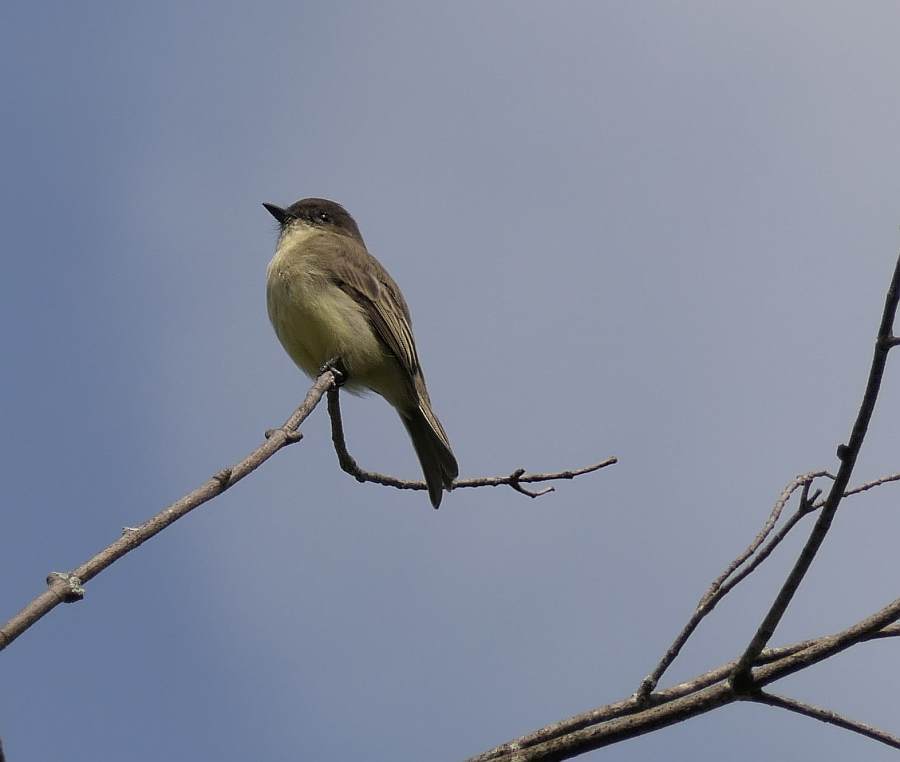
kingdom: Animalia
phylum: Chordata
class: Aves
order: Passeriformes
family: Tyrannidae
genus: Sayornis
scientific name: Sayornis phoebe
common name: Eastern phoebe
